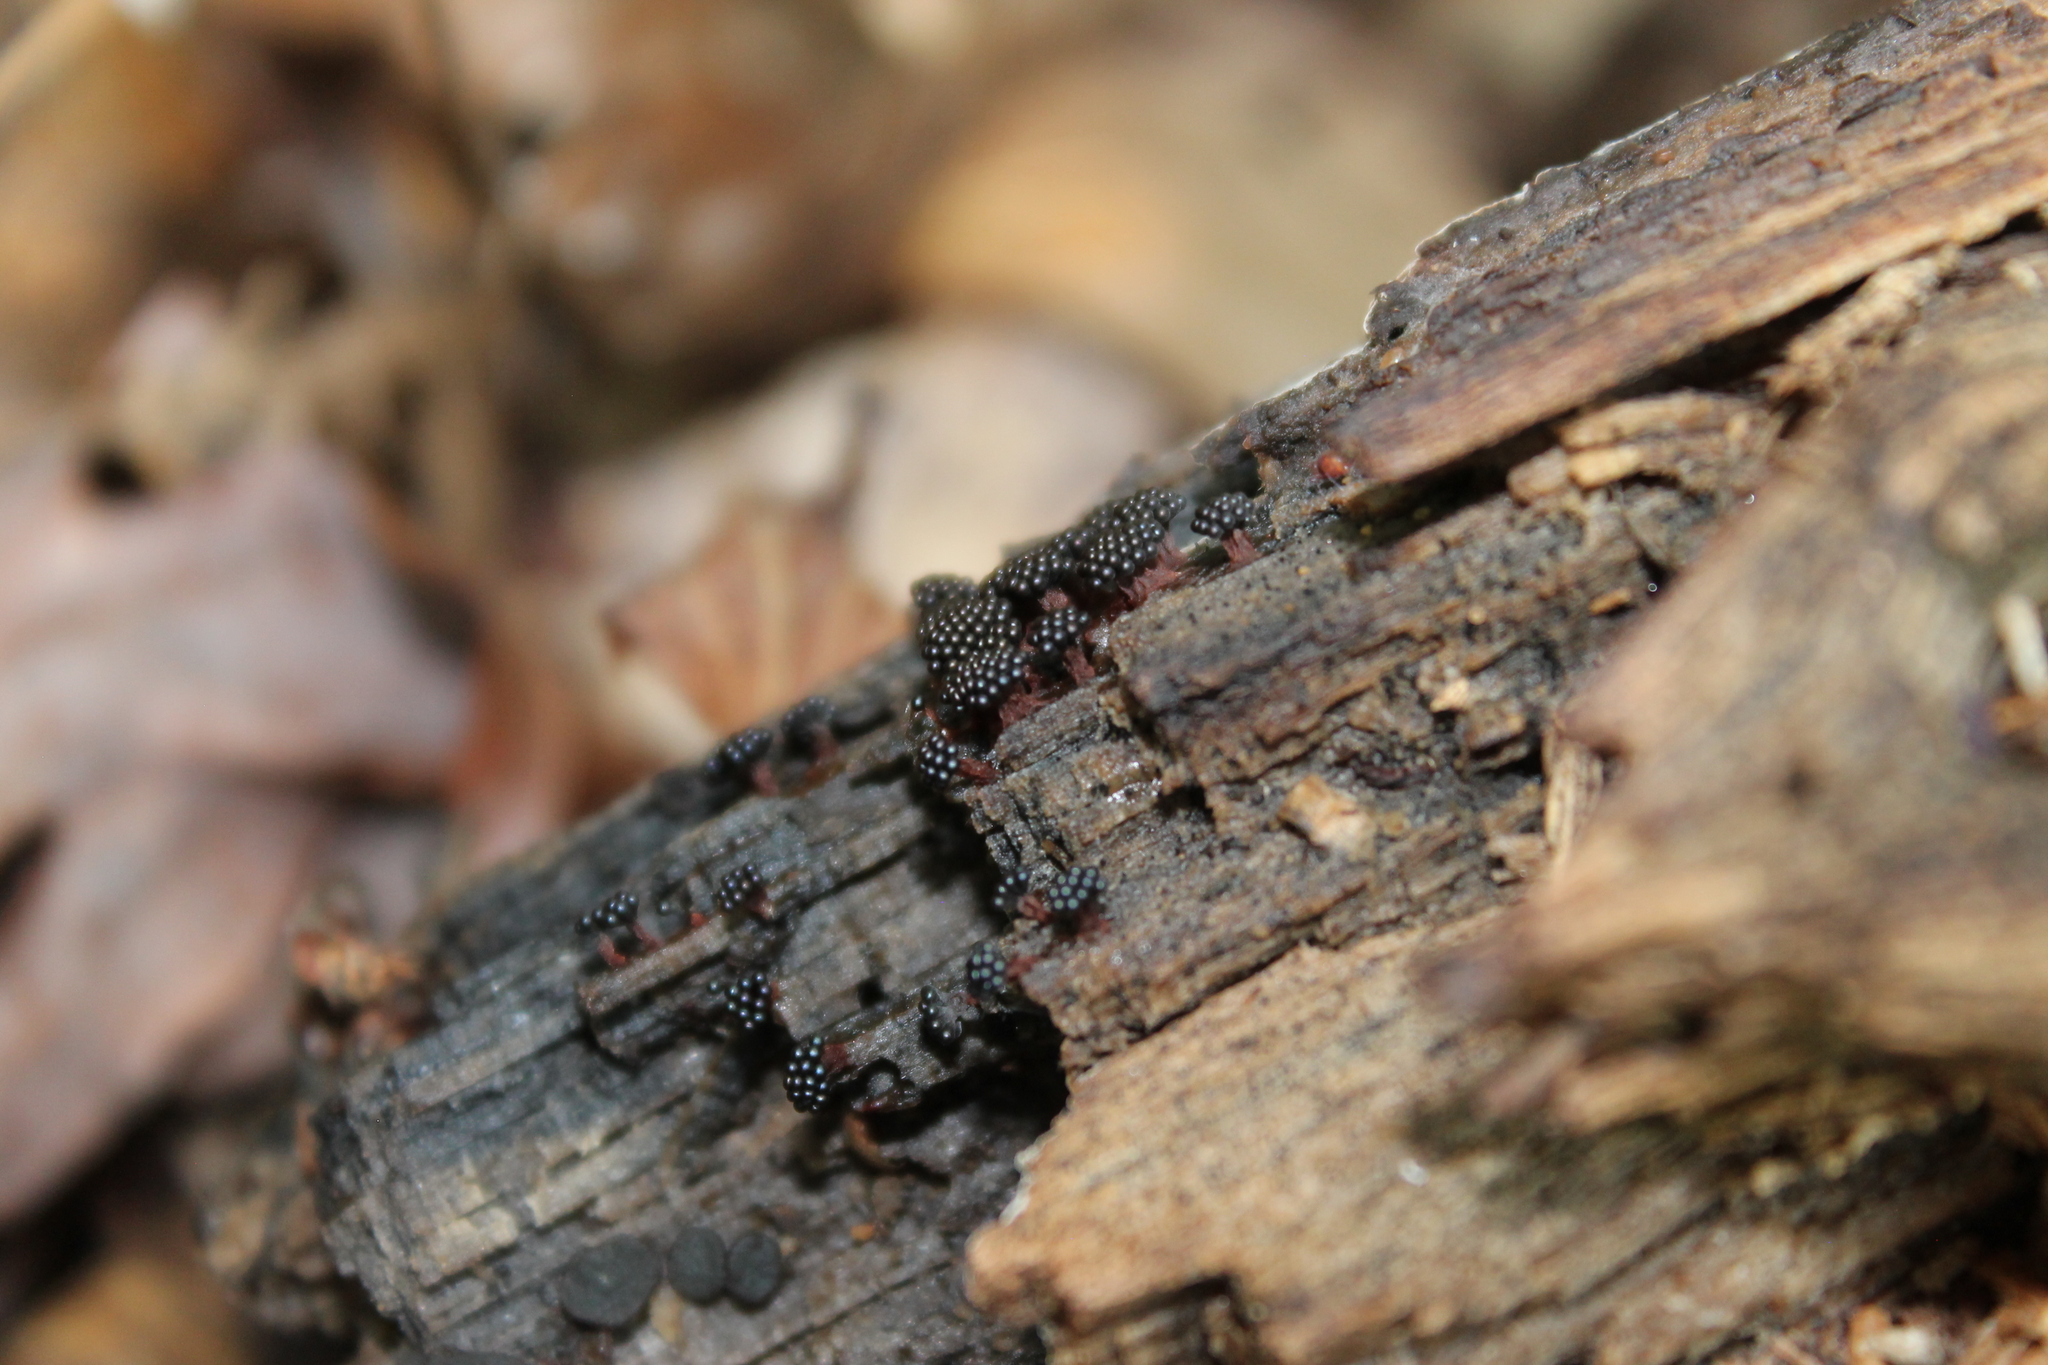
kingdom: Protozoa
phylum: Mycetozoa
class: Myxomycetes
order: Trichiales
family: Trichiaceae
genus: Metatrichia
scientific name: Metatrichia vesparia
